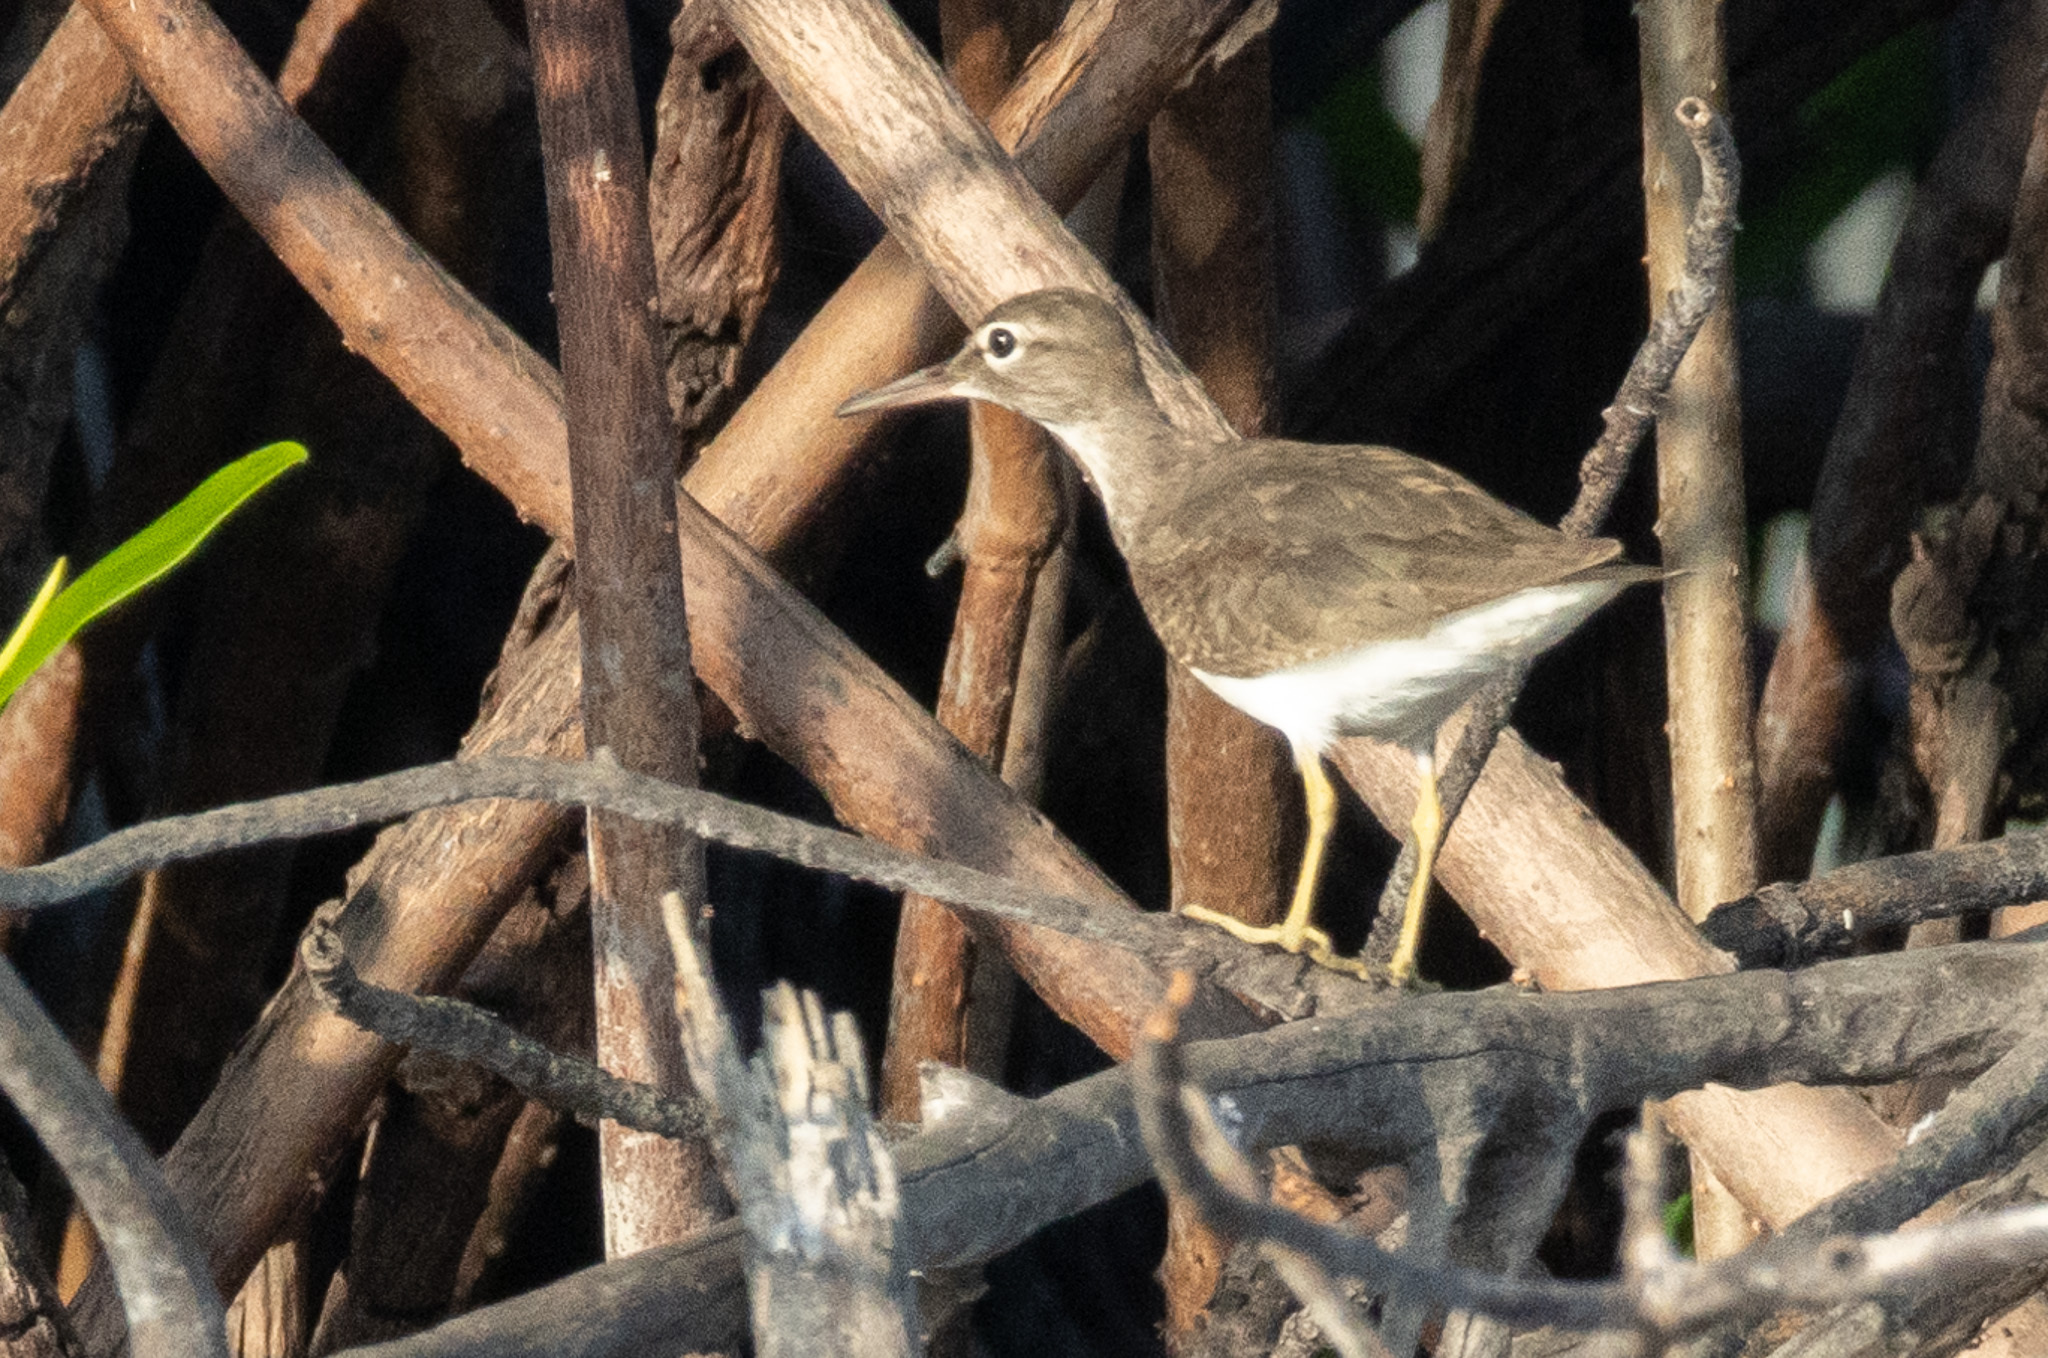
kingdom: Animalia
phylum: Chordata
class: Aves
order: Charadriiformes
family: Scolopacidae
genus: Actitis
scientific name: Actitis macularius
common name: Spotted sandpiper
